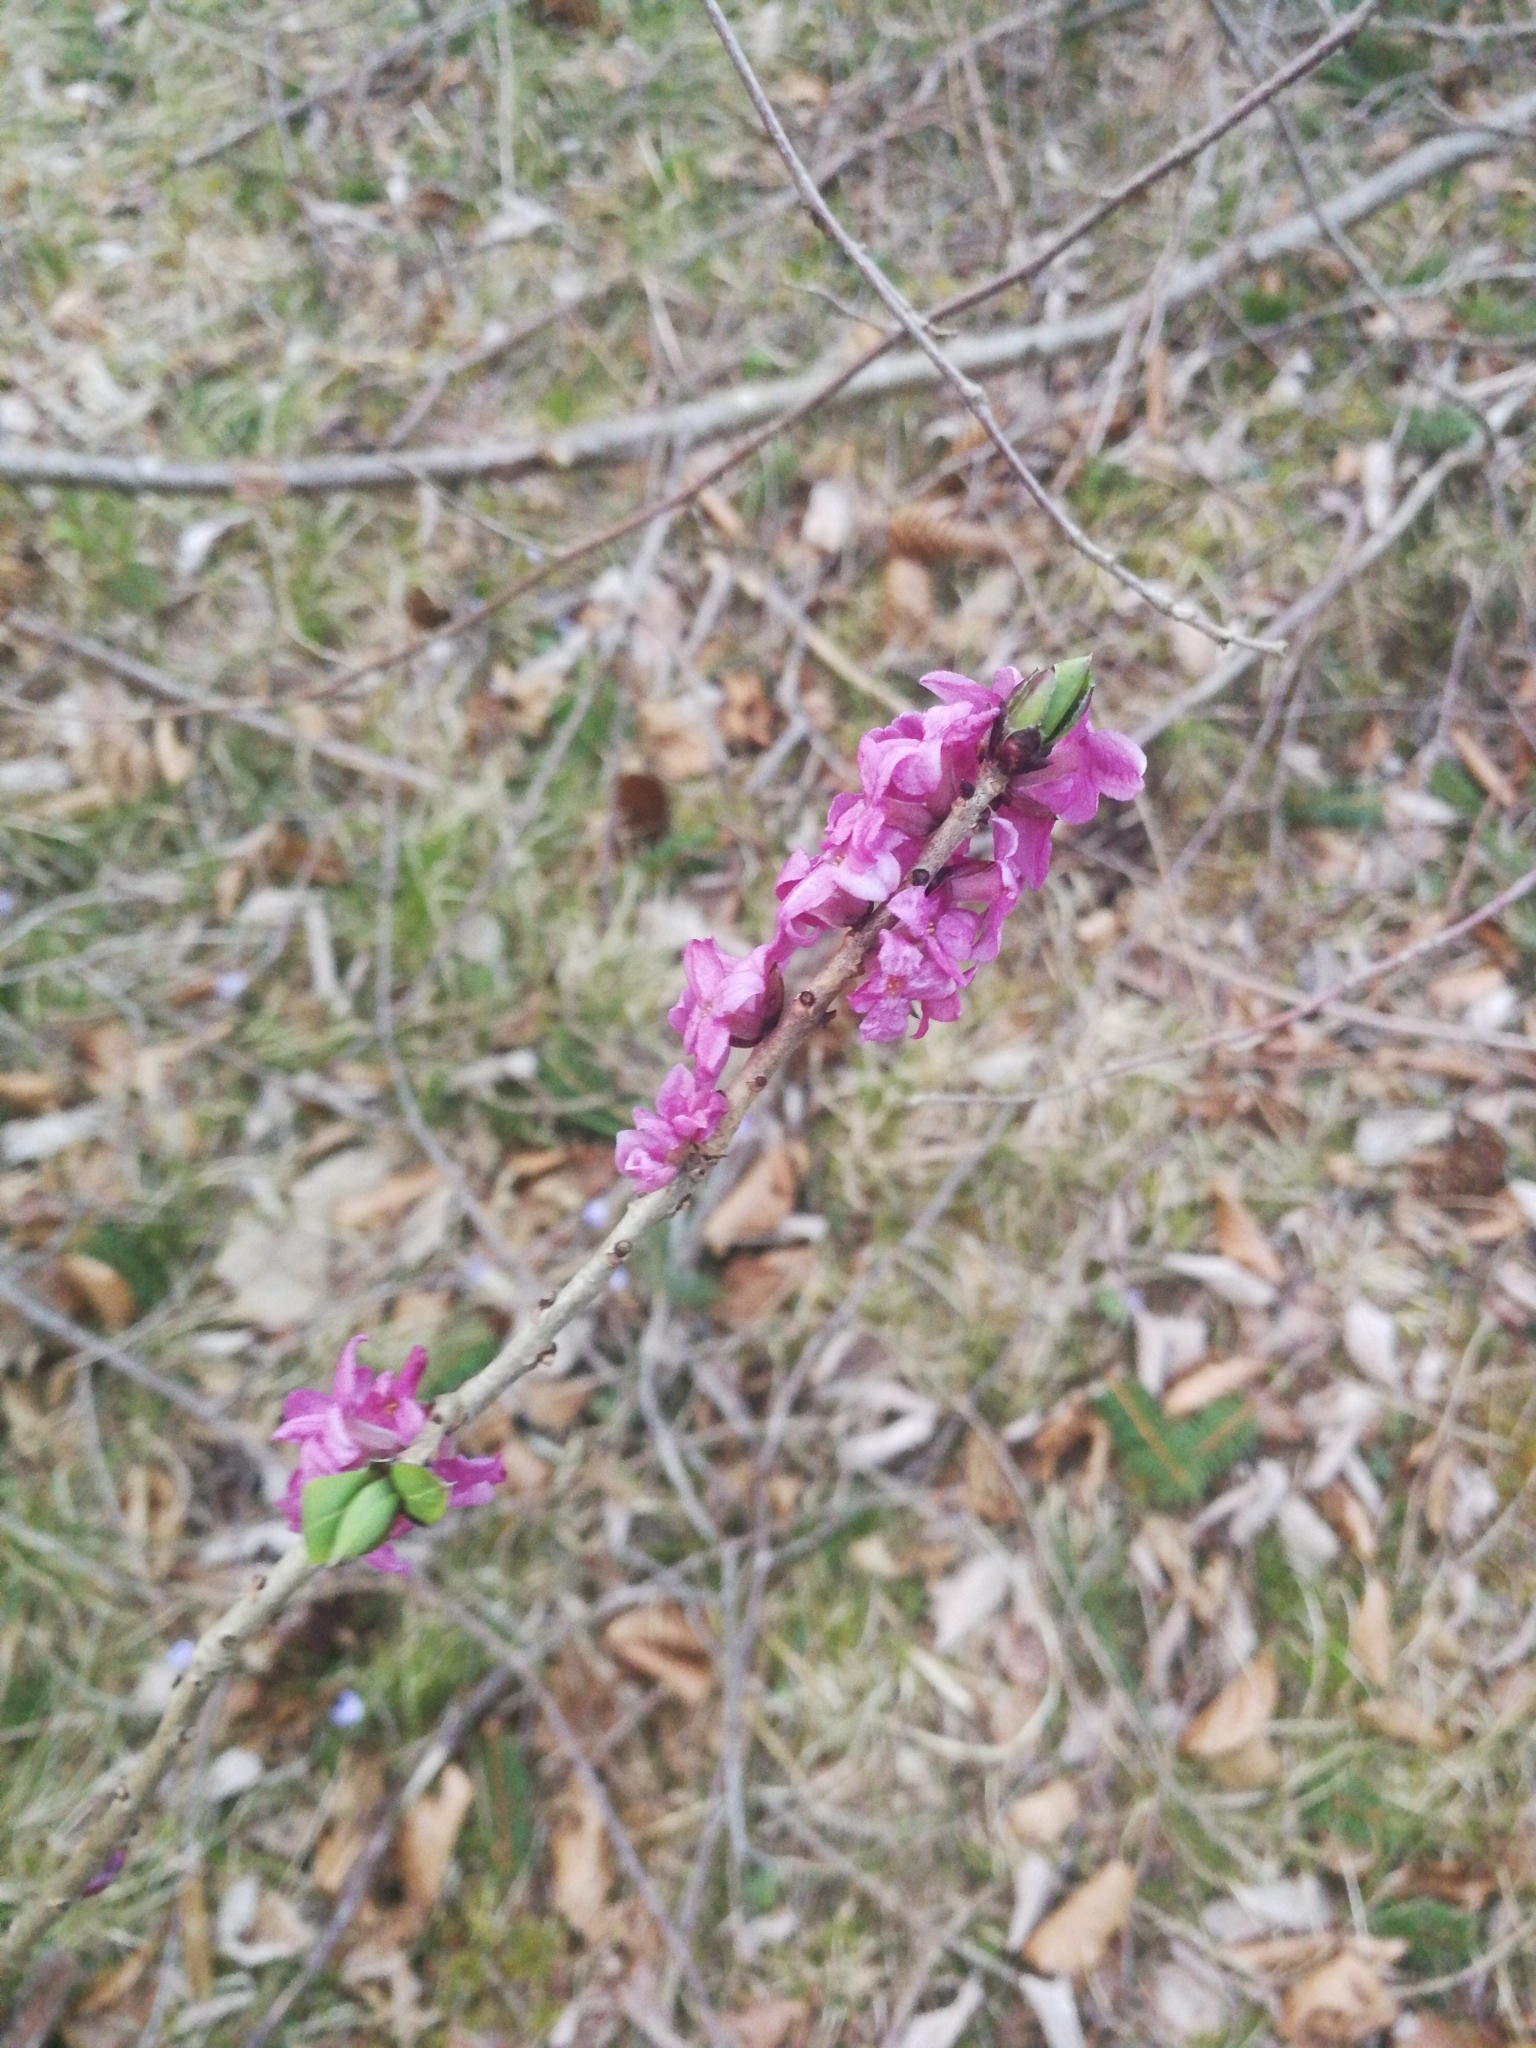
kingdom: Plantae
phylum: Tracheophyta
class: Magnoliopsida
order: Malvales
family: Thymelaeaceae
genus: Daphne
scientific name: Daphne mezereum
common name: Mezereon
